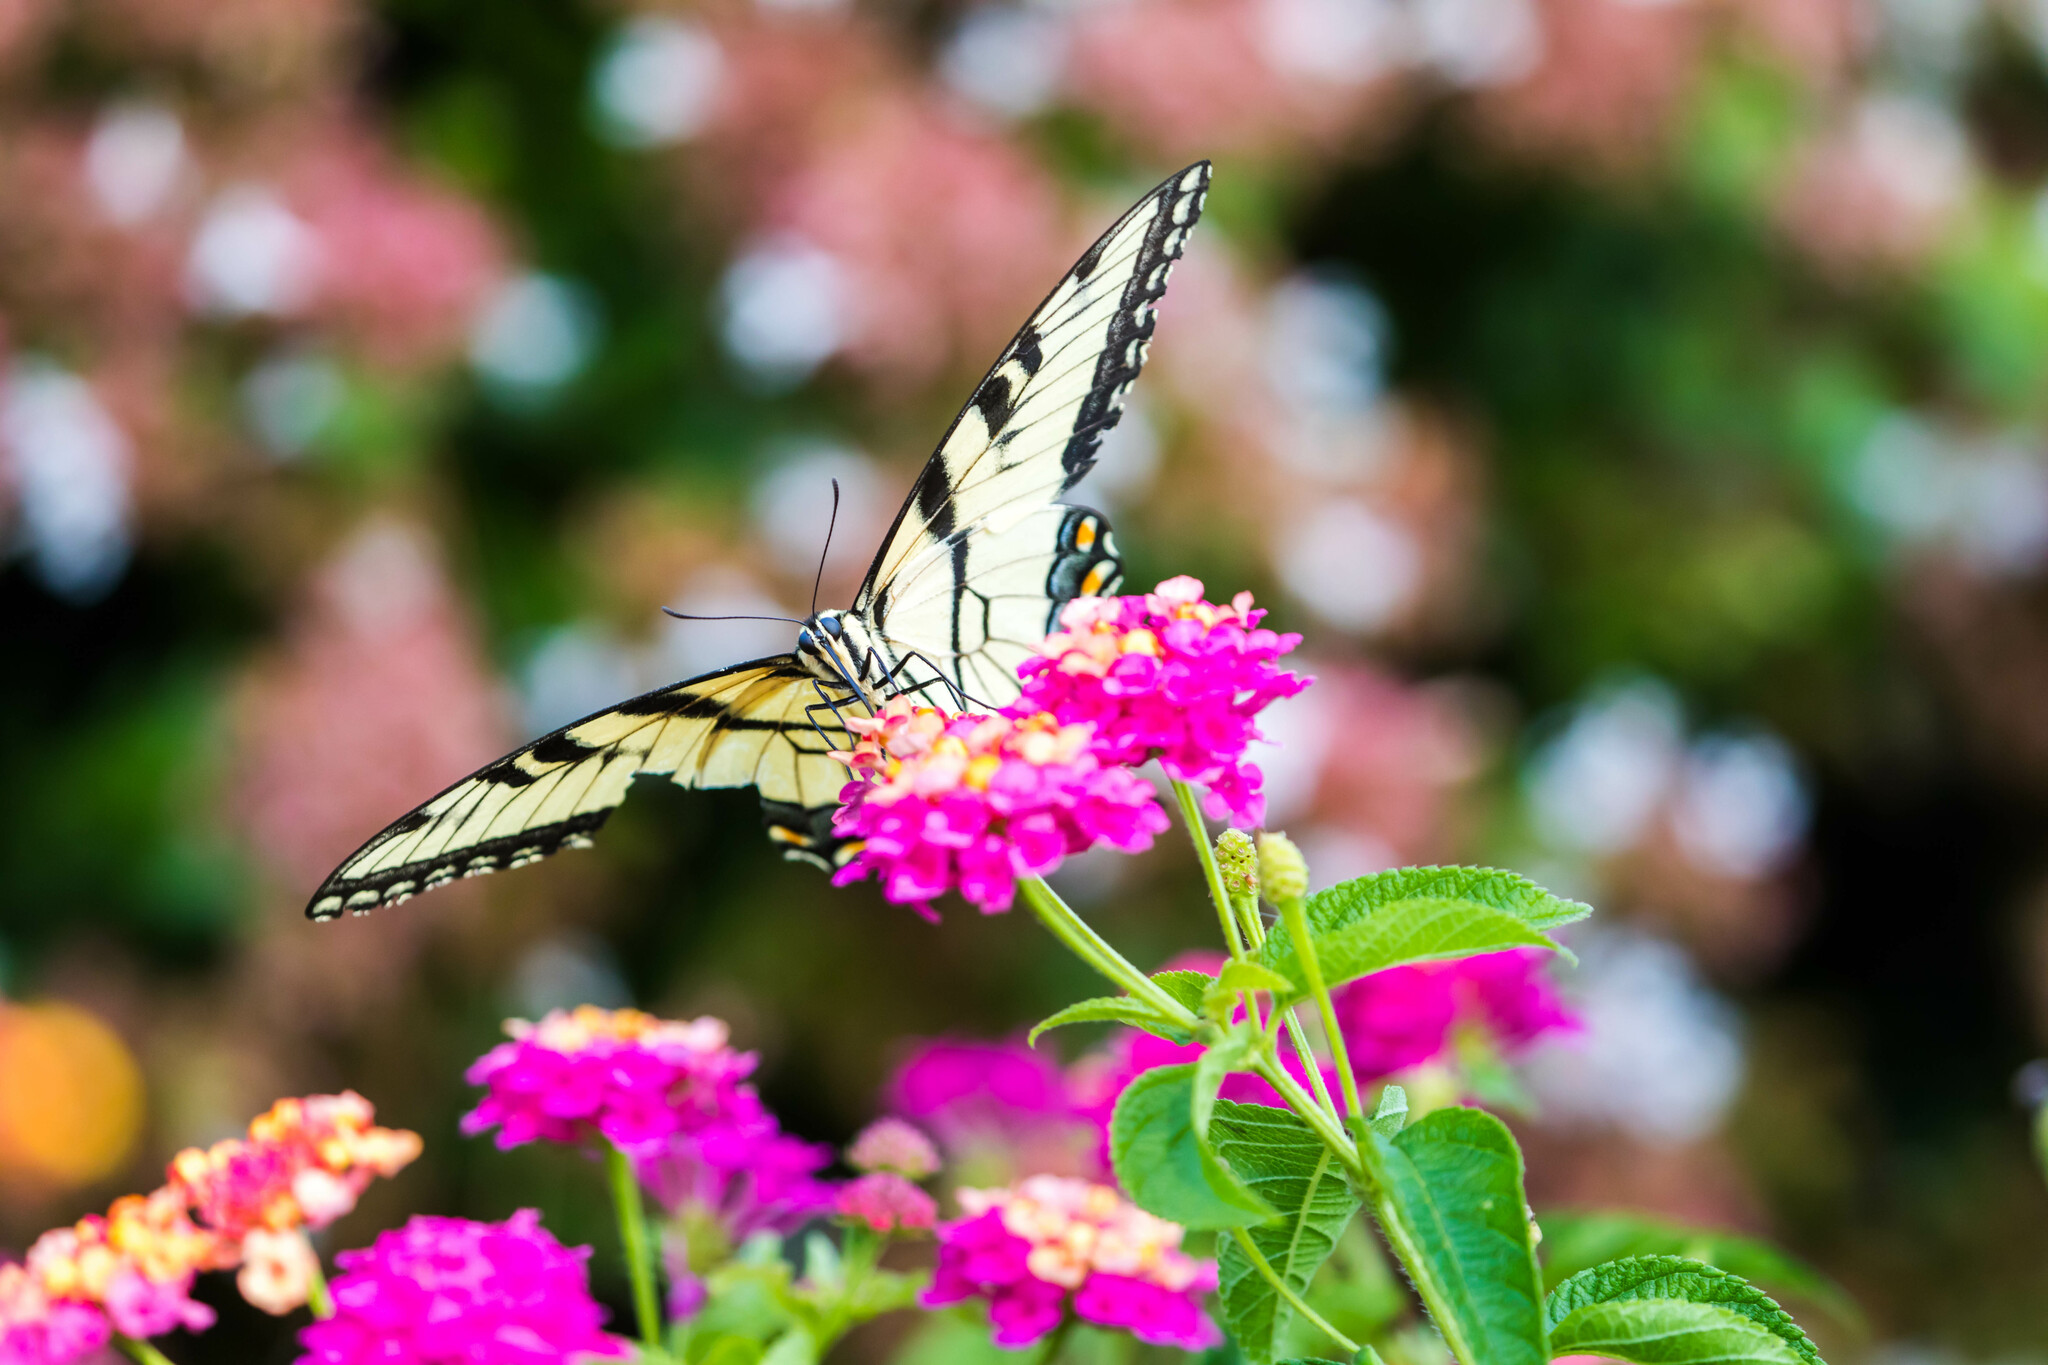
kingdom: Animalia
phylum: Arthropoda
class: Insecta
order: Lepidoptera
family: Papilionidae
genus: Papilio
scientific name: Papilio glaucus
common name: Tiger swallowtail
